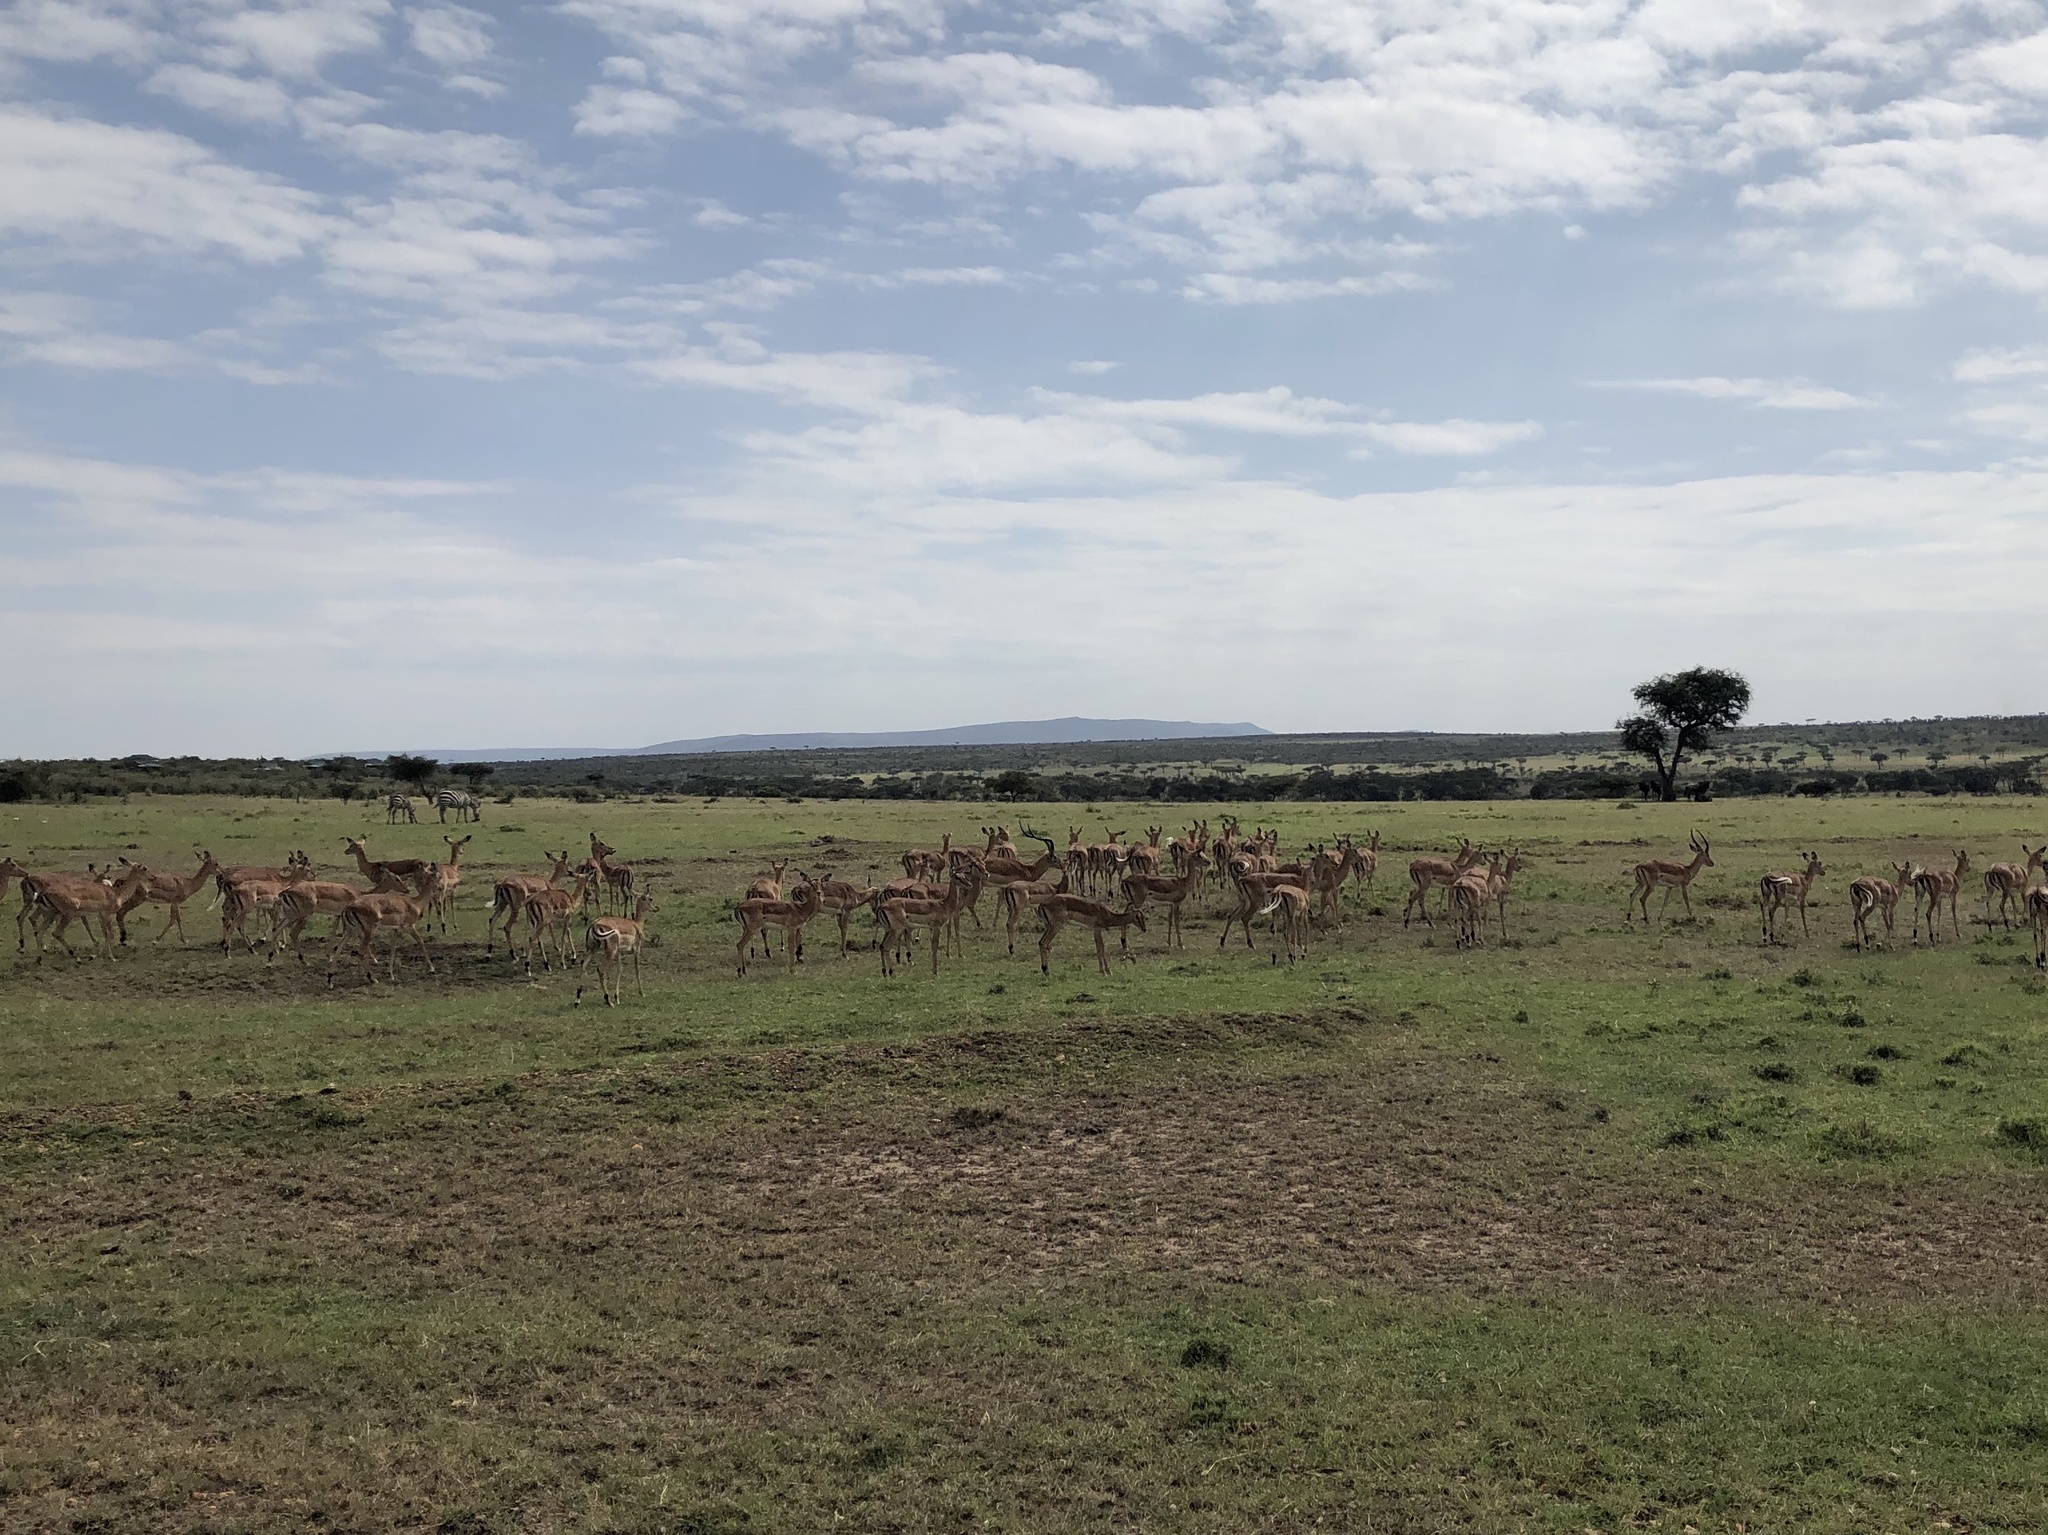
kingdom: Animalia
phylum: Chordata
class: Mammalia
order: Artiodactyla
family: Bovidae
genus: Aepyceros
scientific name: Aepyceros melampus
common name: Impala
